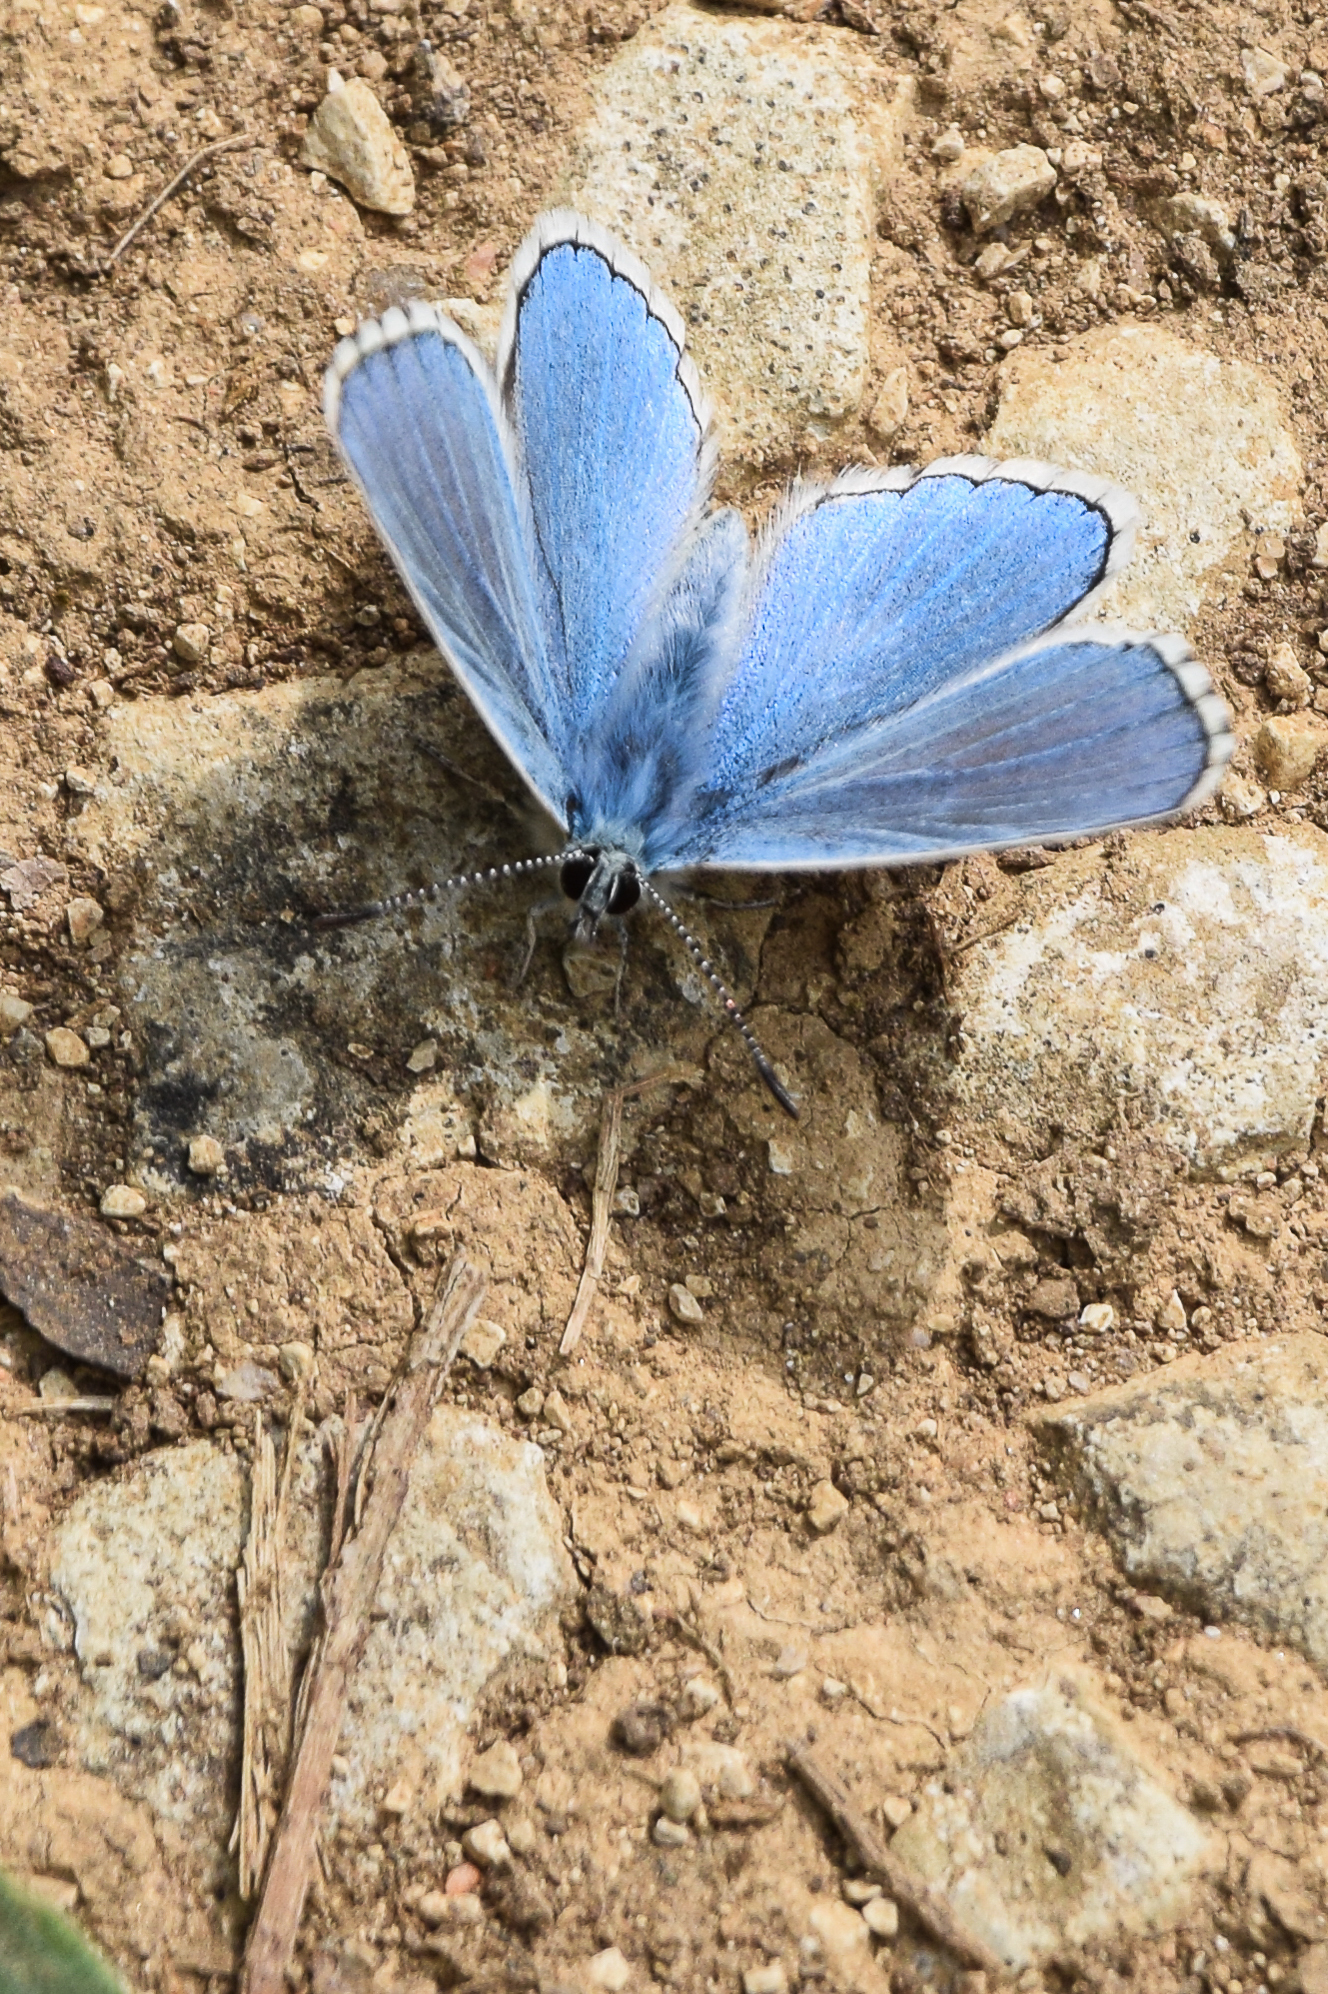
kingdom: Animalia
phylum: Arthropoda
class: Insecta
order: Lepidoptera
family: Lycaenidae
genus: Lysandra
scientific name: Lysandra bellargus
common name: Adonis blue
